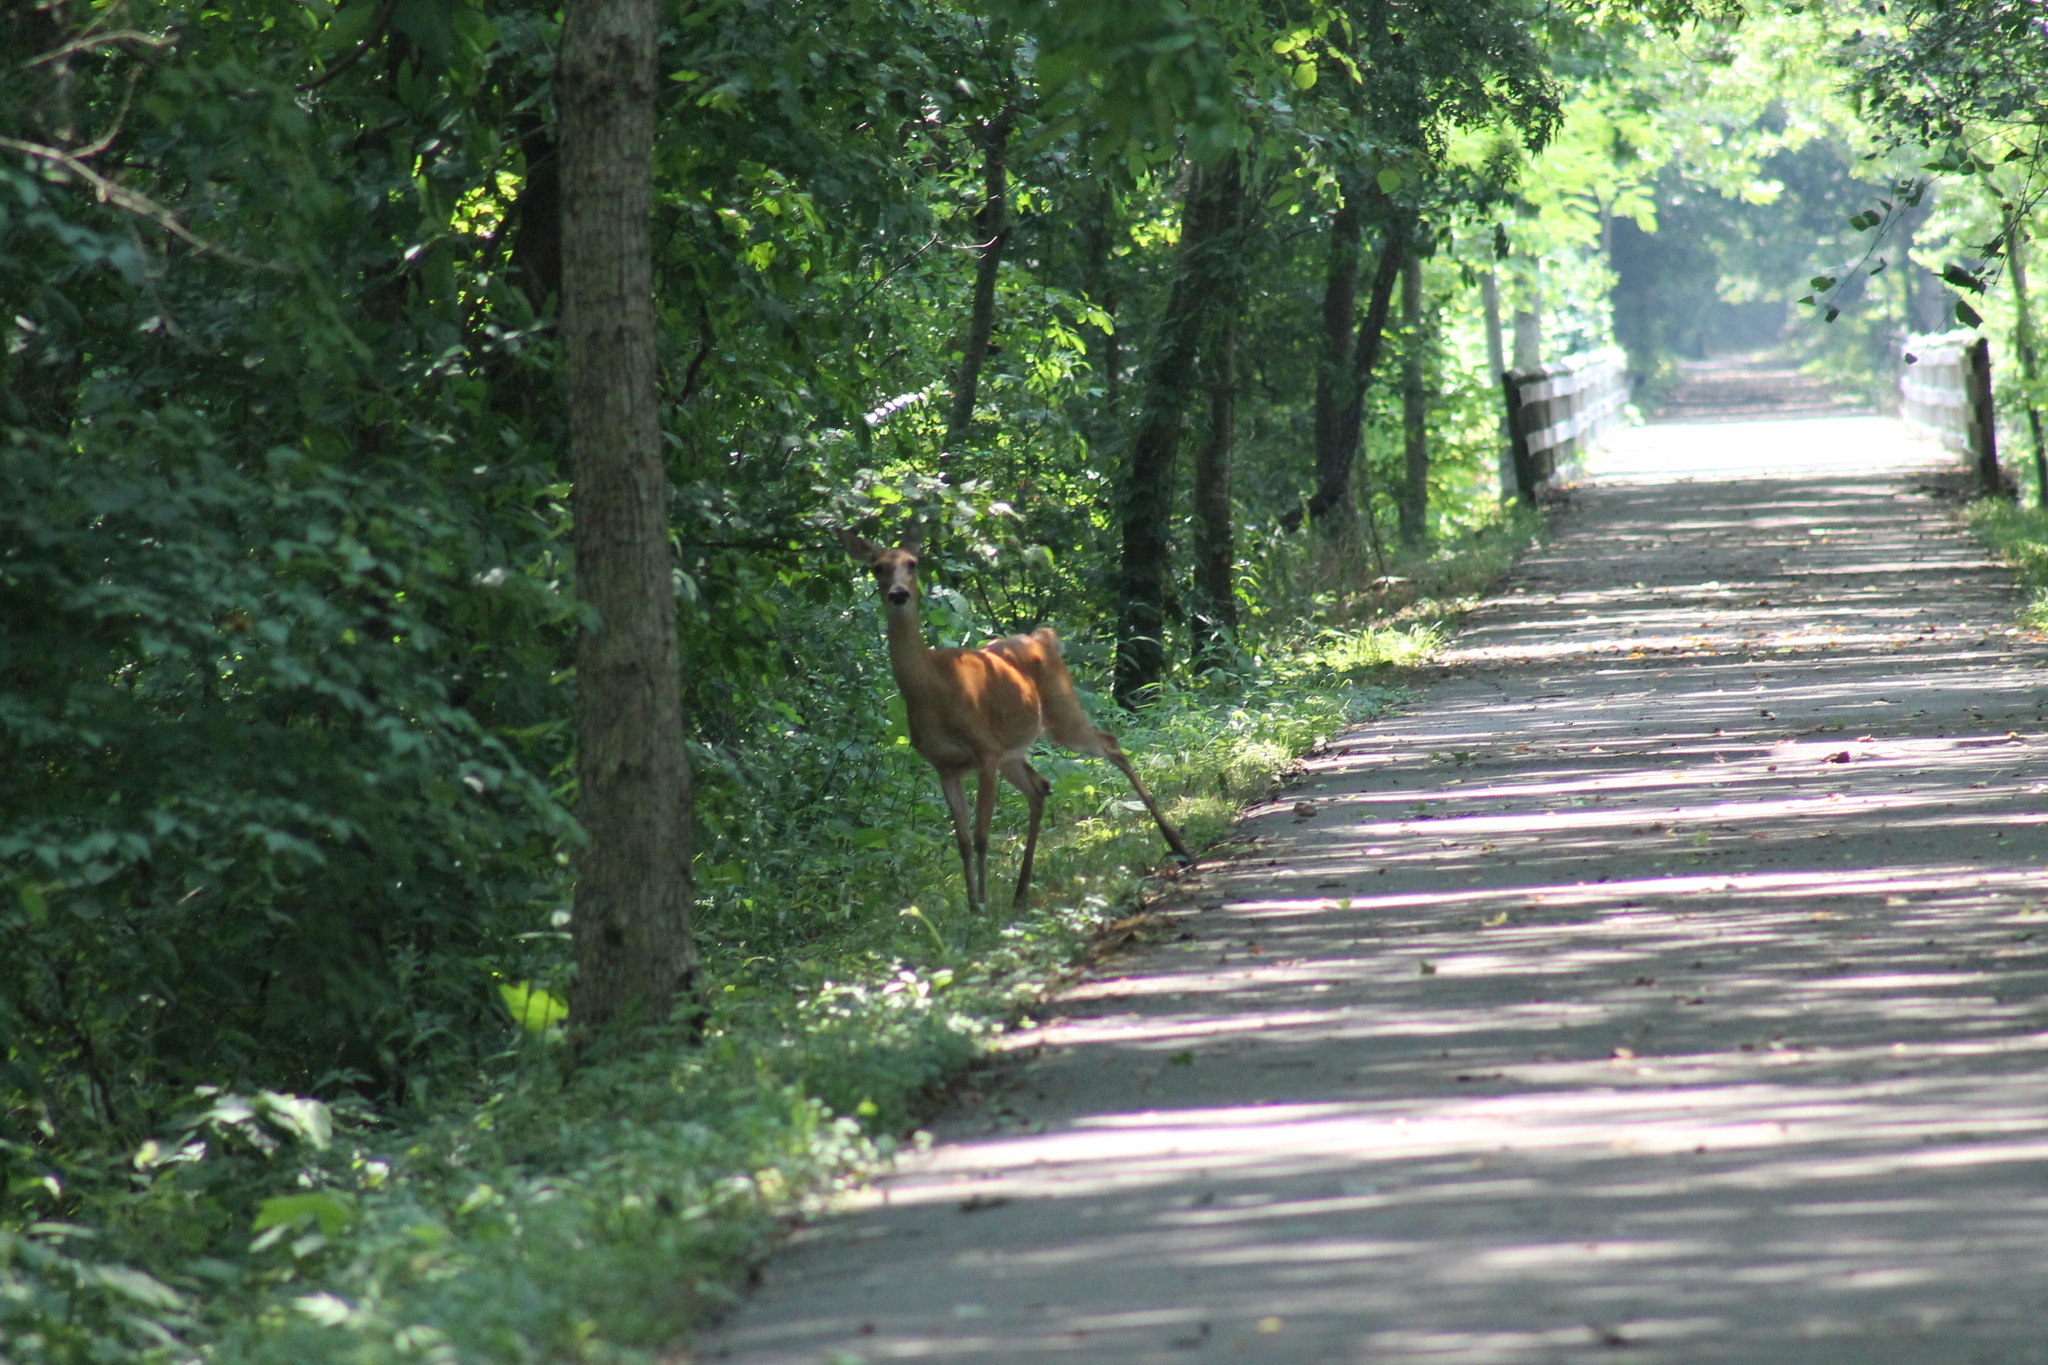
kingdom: Animalia
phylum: Chordata
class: Mammalia
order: Artiodactyla
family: Cervidae
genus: Odocoileus
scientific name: Odocoileus virginianus
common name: White-tailed deer
